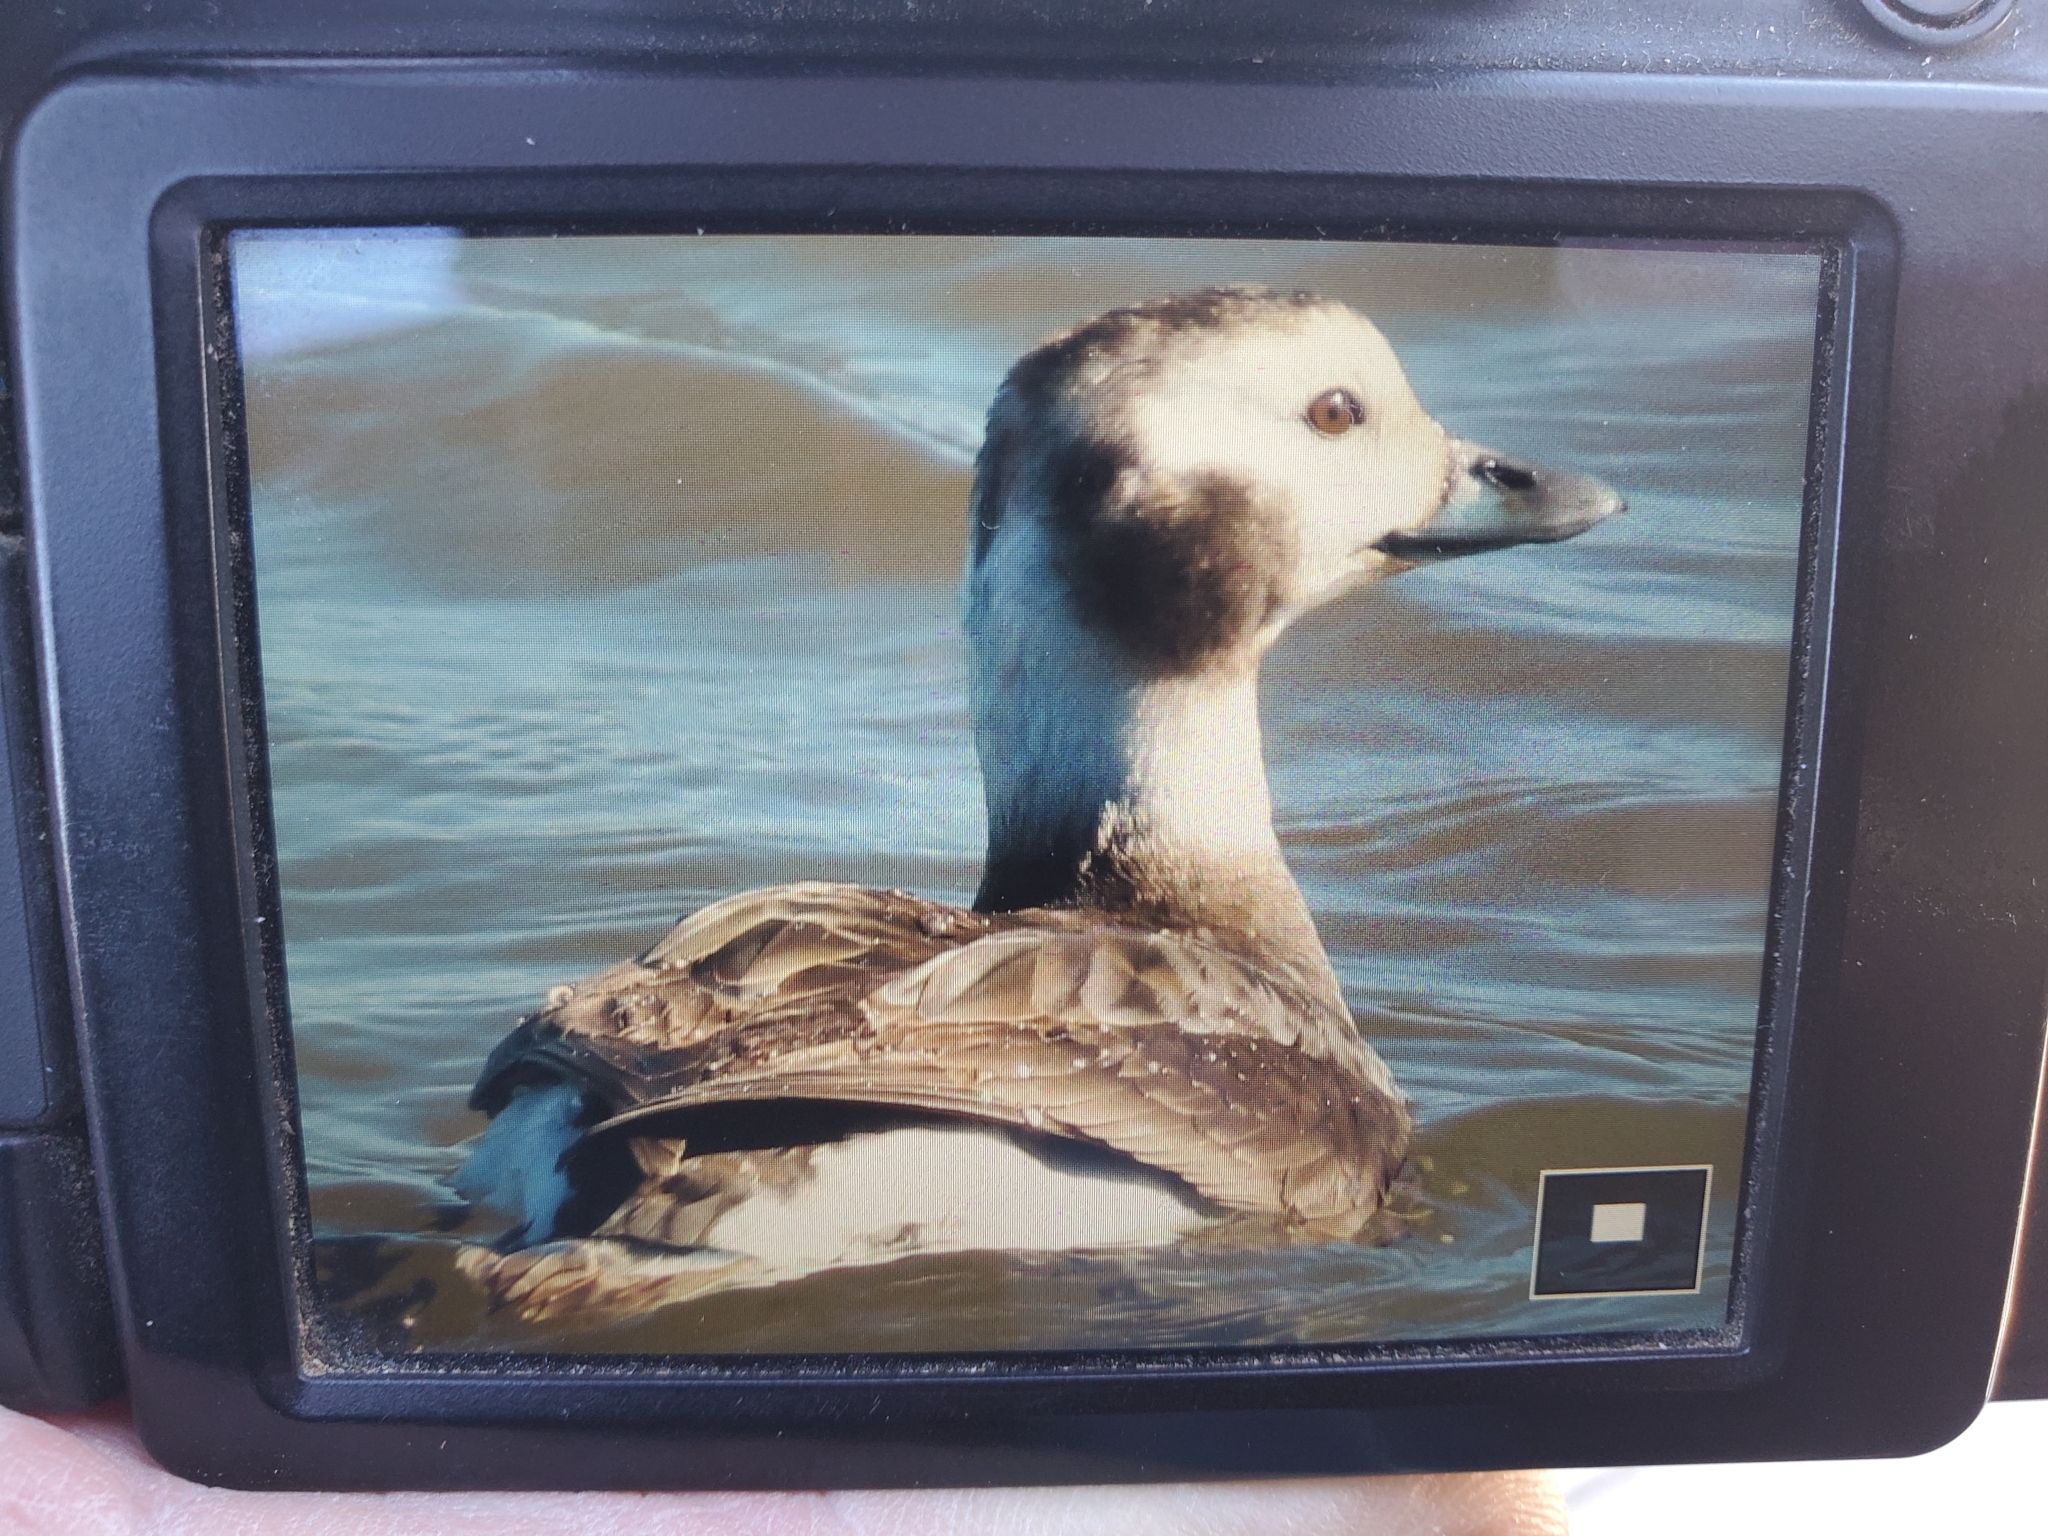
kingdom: Animalia
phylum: Chordata
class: Aves
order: Anseriformes
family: Anatidae
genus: Clangula
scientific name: Clangula hyemalis
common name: Long-tailed duck
